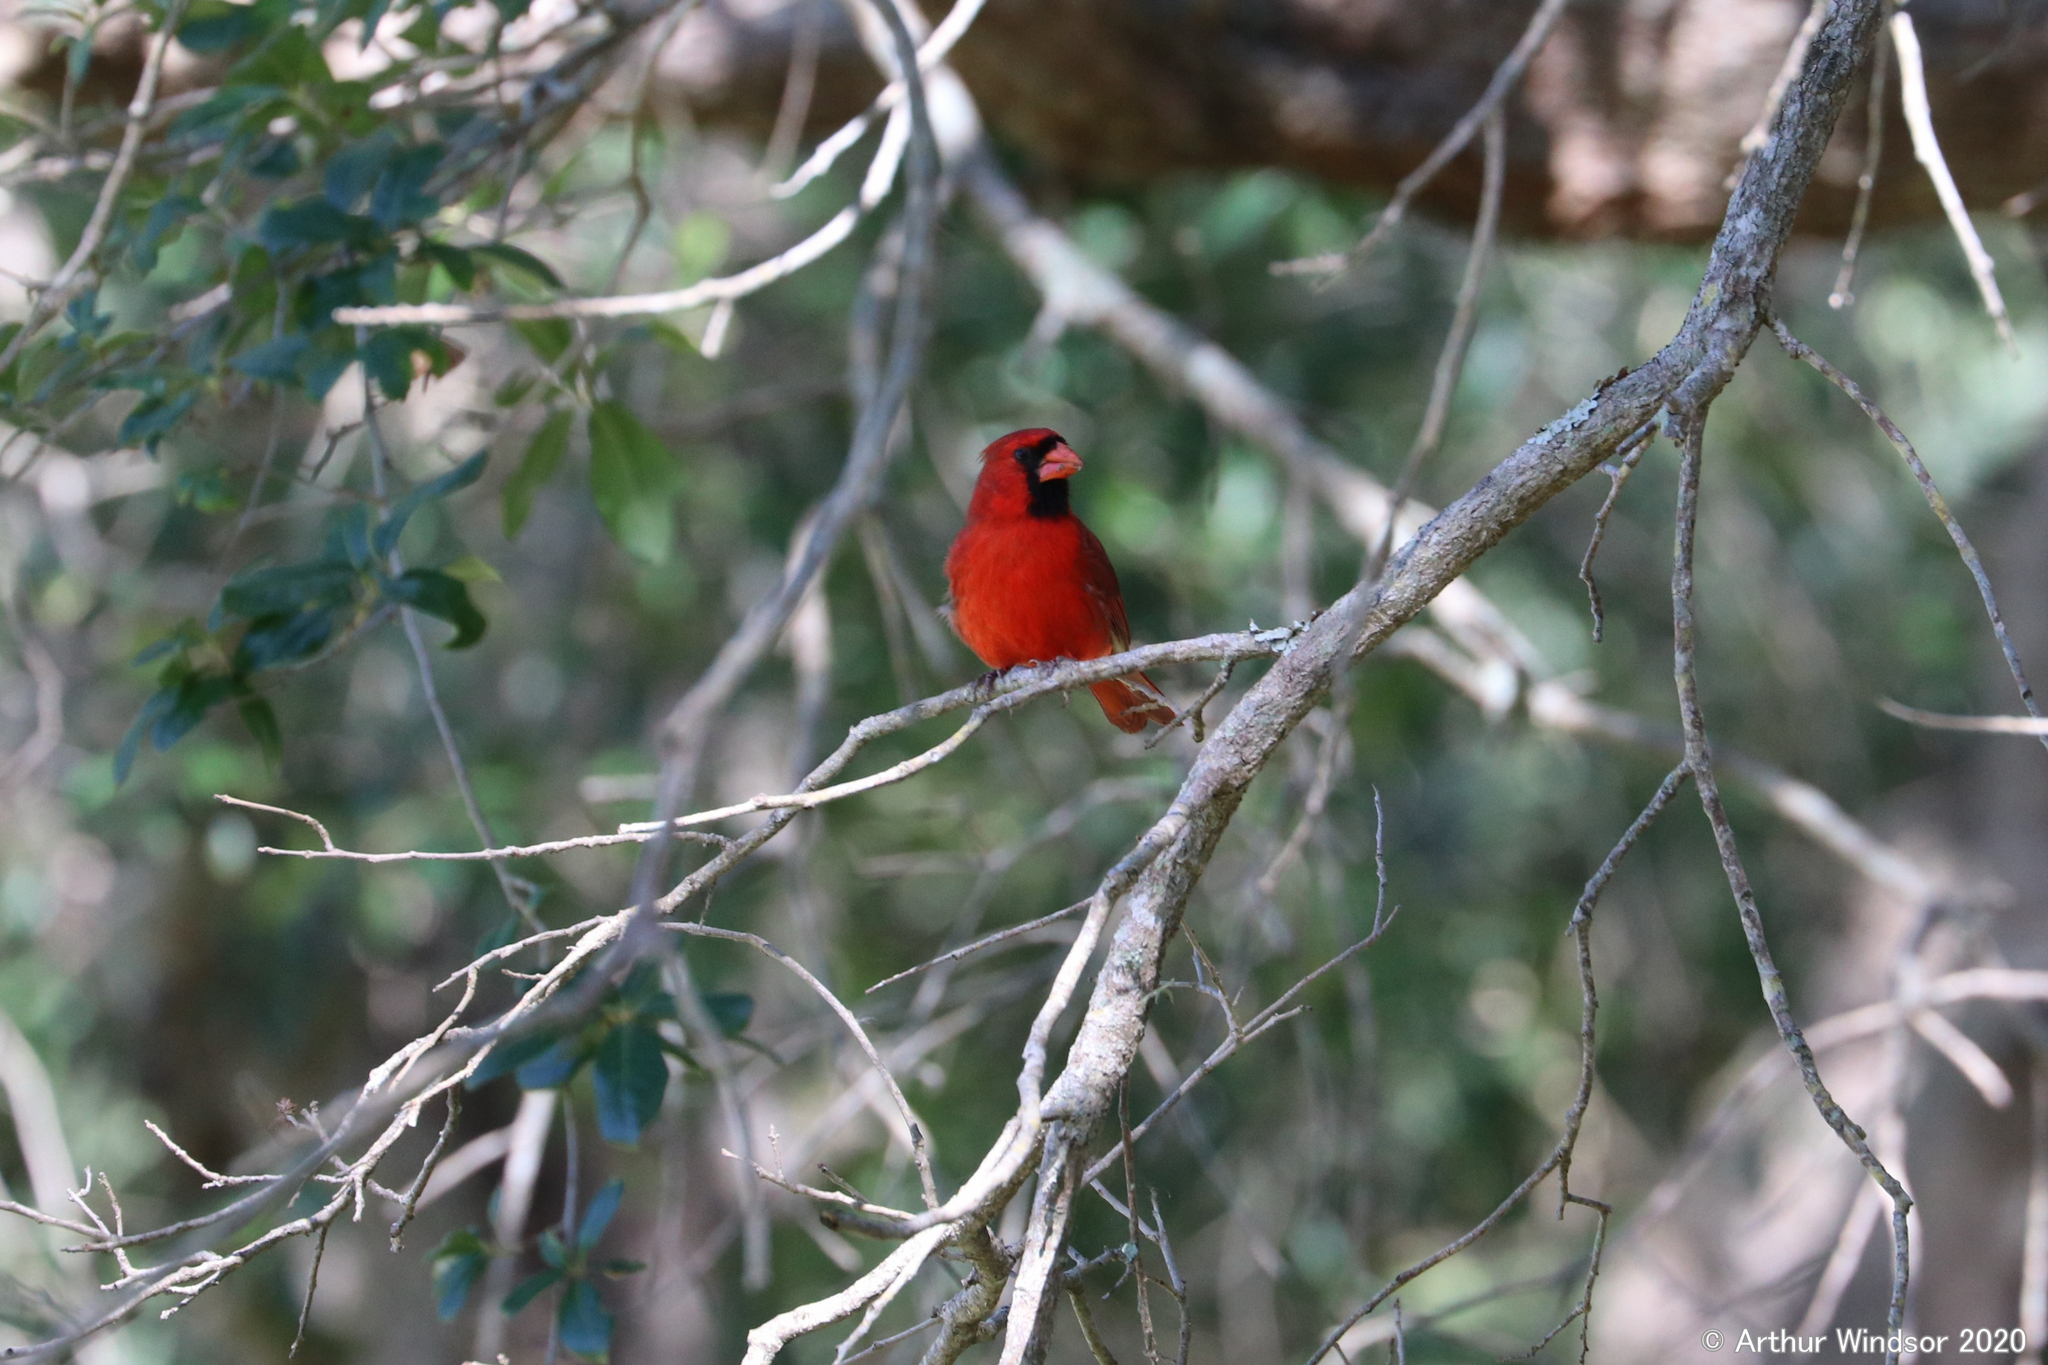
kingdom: Animalia
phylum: Chordata
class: Aves
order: Passeriformes
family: Cardinalidae
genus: Cardinalis
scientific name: Cardinalis cardinalis
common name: Northern cardinal
